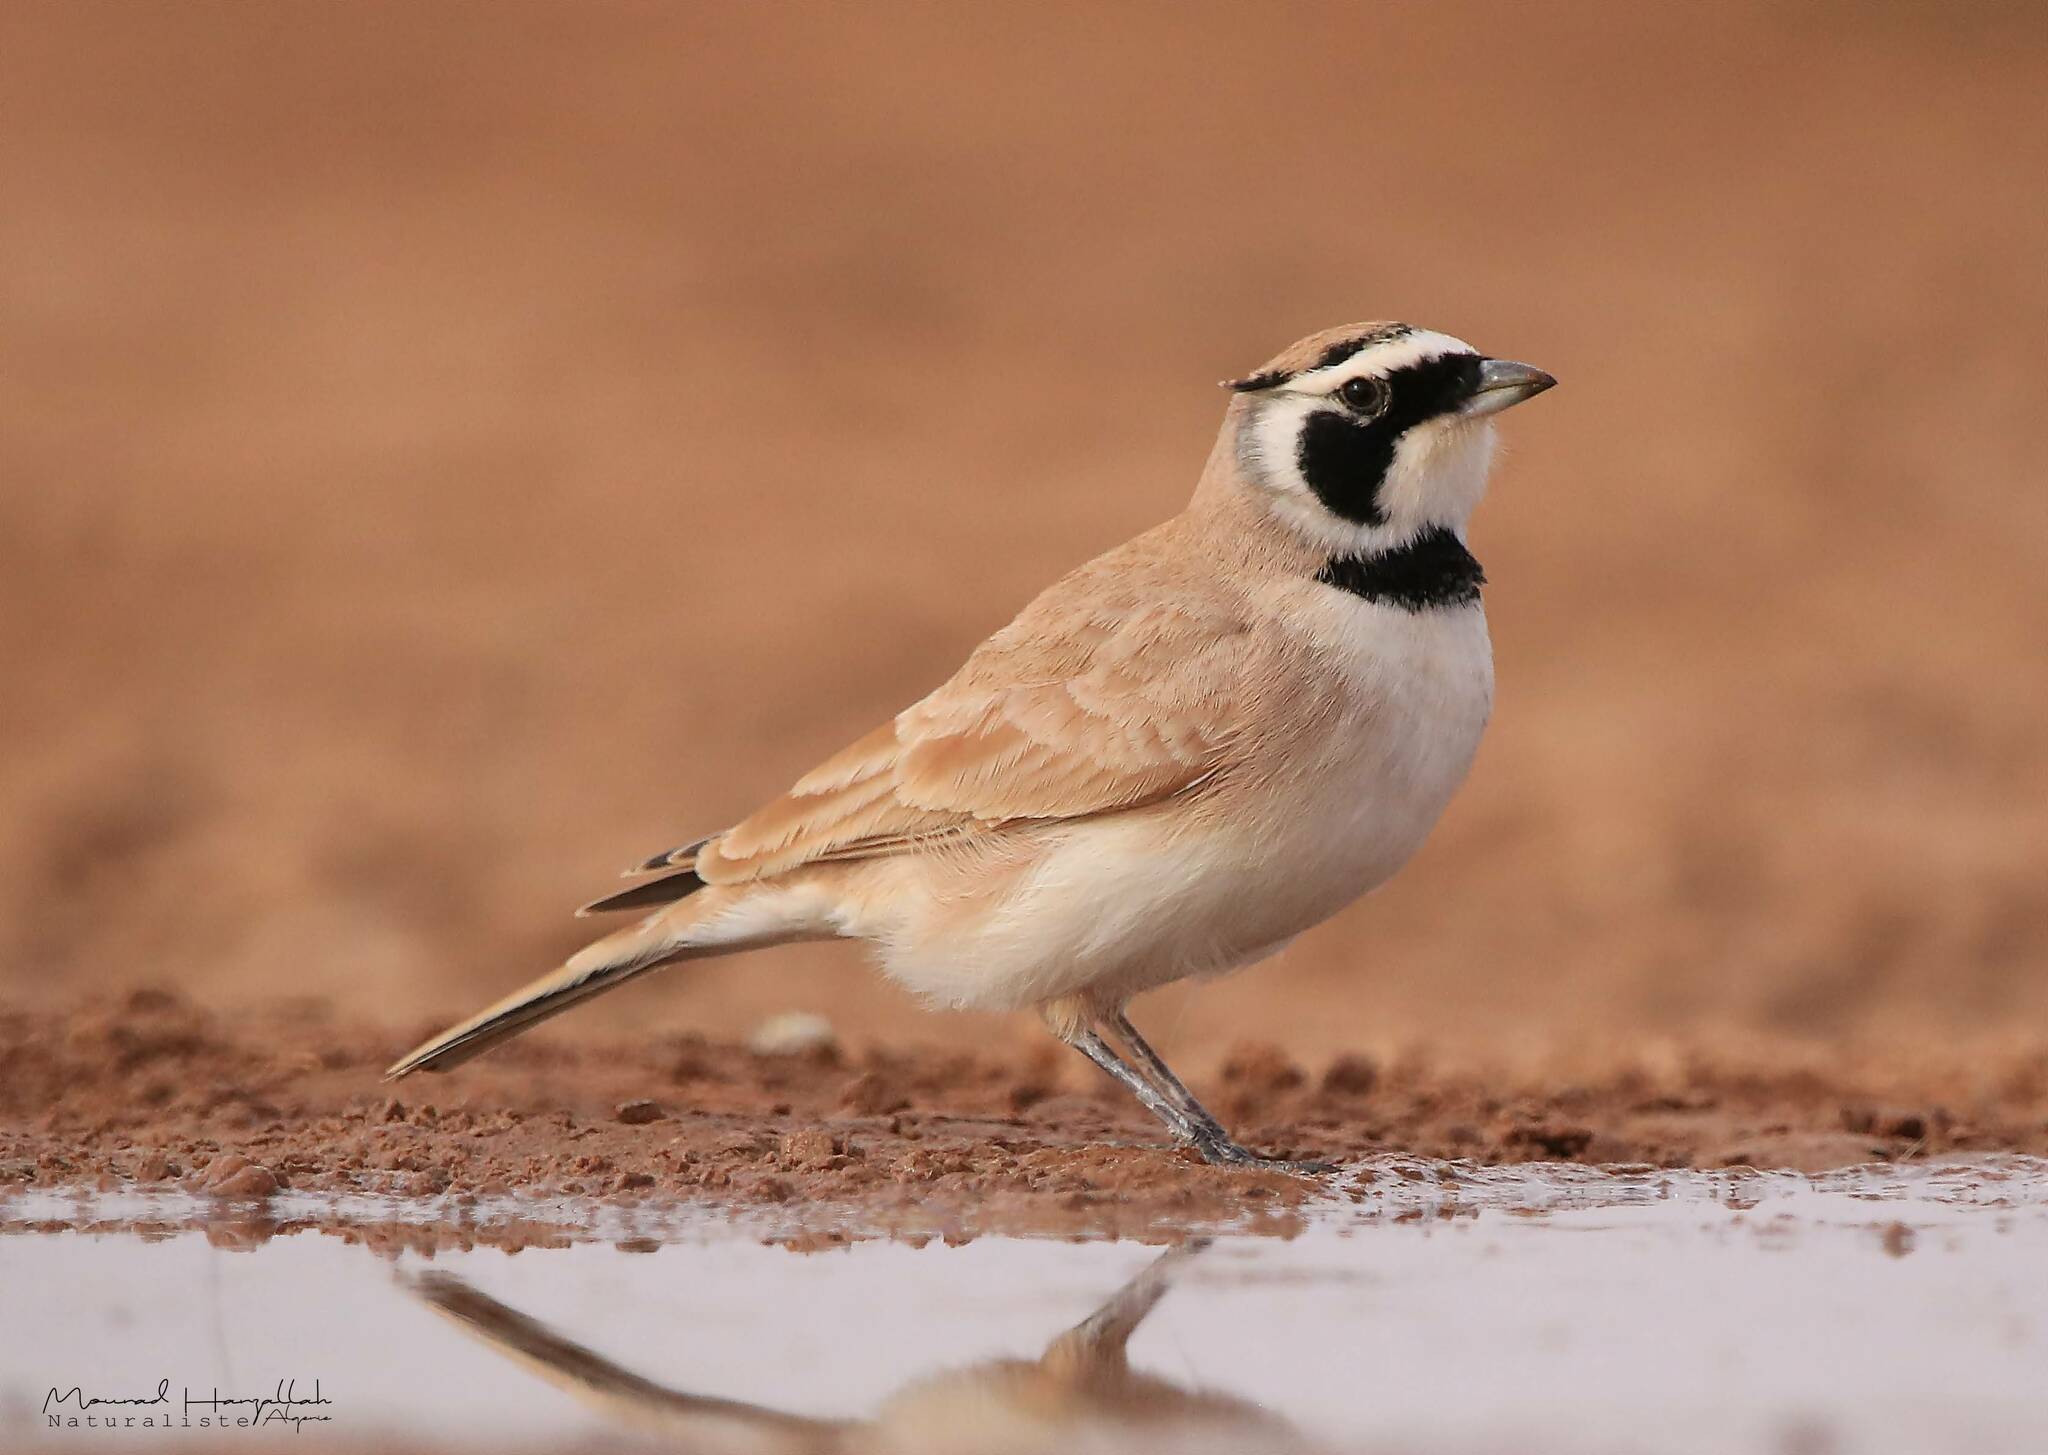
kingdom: Animalia
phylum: Chordata
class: Aves
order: Passeriformes
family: Alaudidae
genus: Eremophila
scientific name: Eremophila bilopha
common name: Temminck's lark
